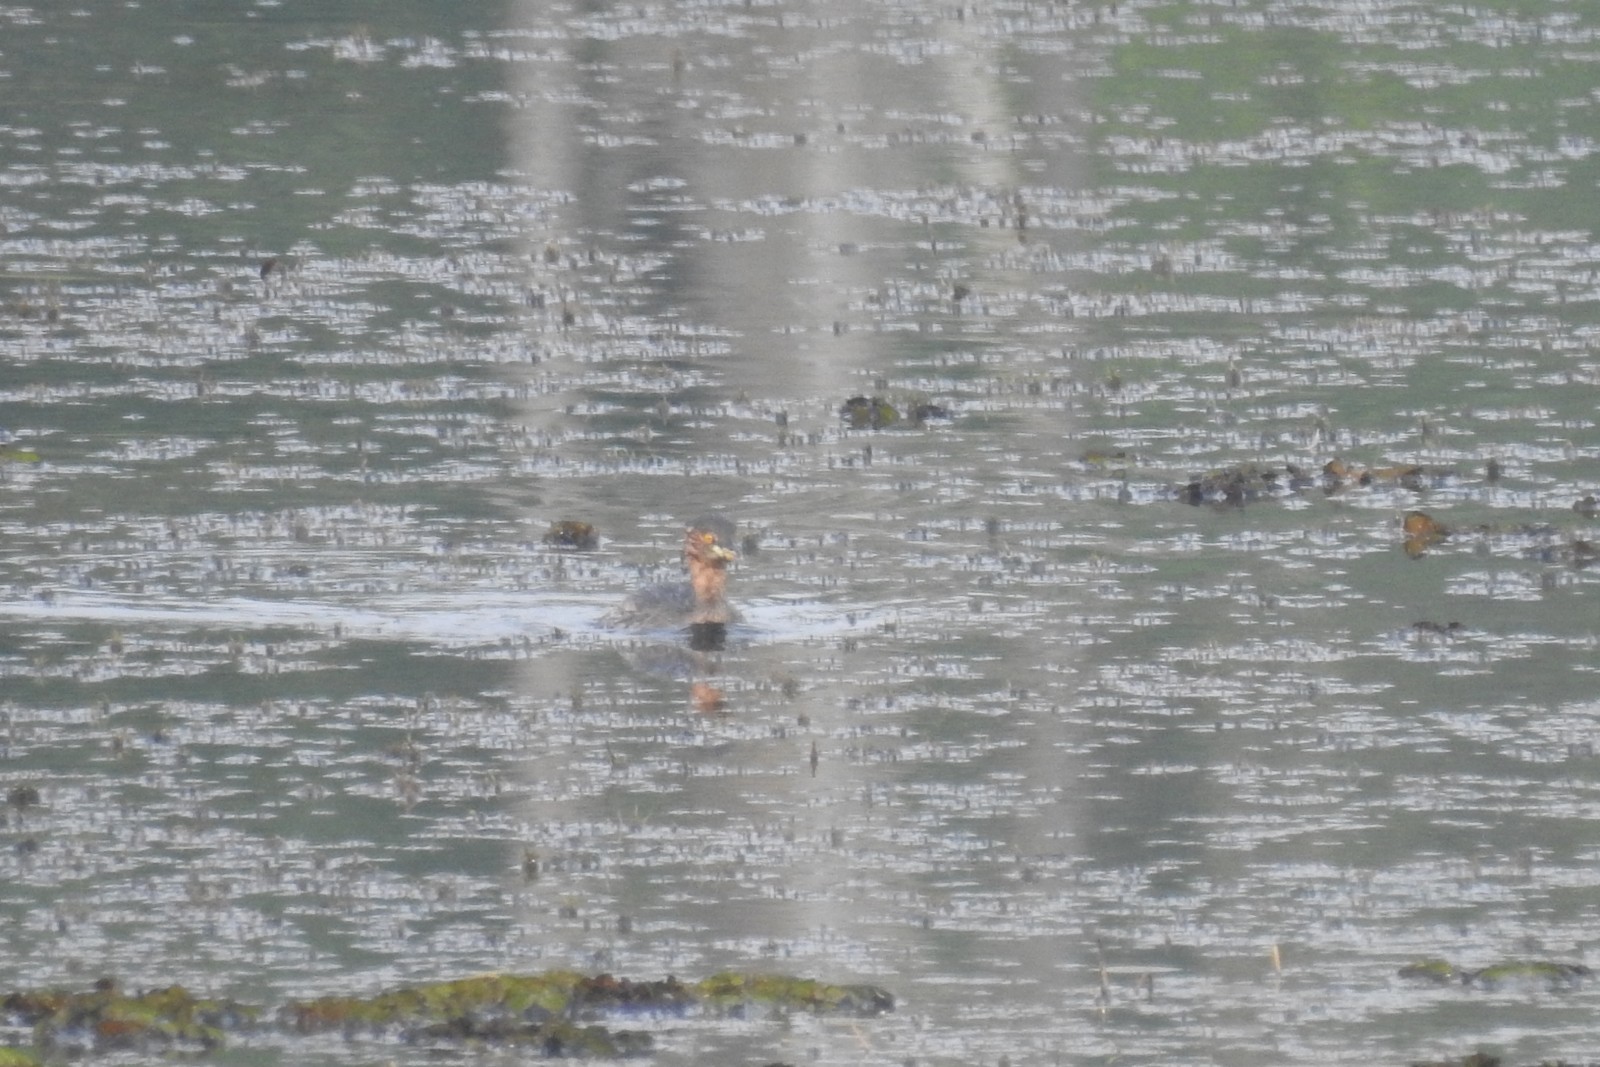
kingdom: Animalia
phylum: Chordata
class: Aves
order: Podicipediformes
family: Podicipedidae
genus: Tachybaptus
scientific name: Tachybaptus ruficollis
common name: Little grebe
